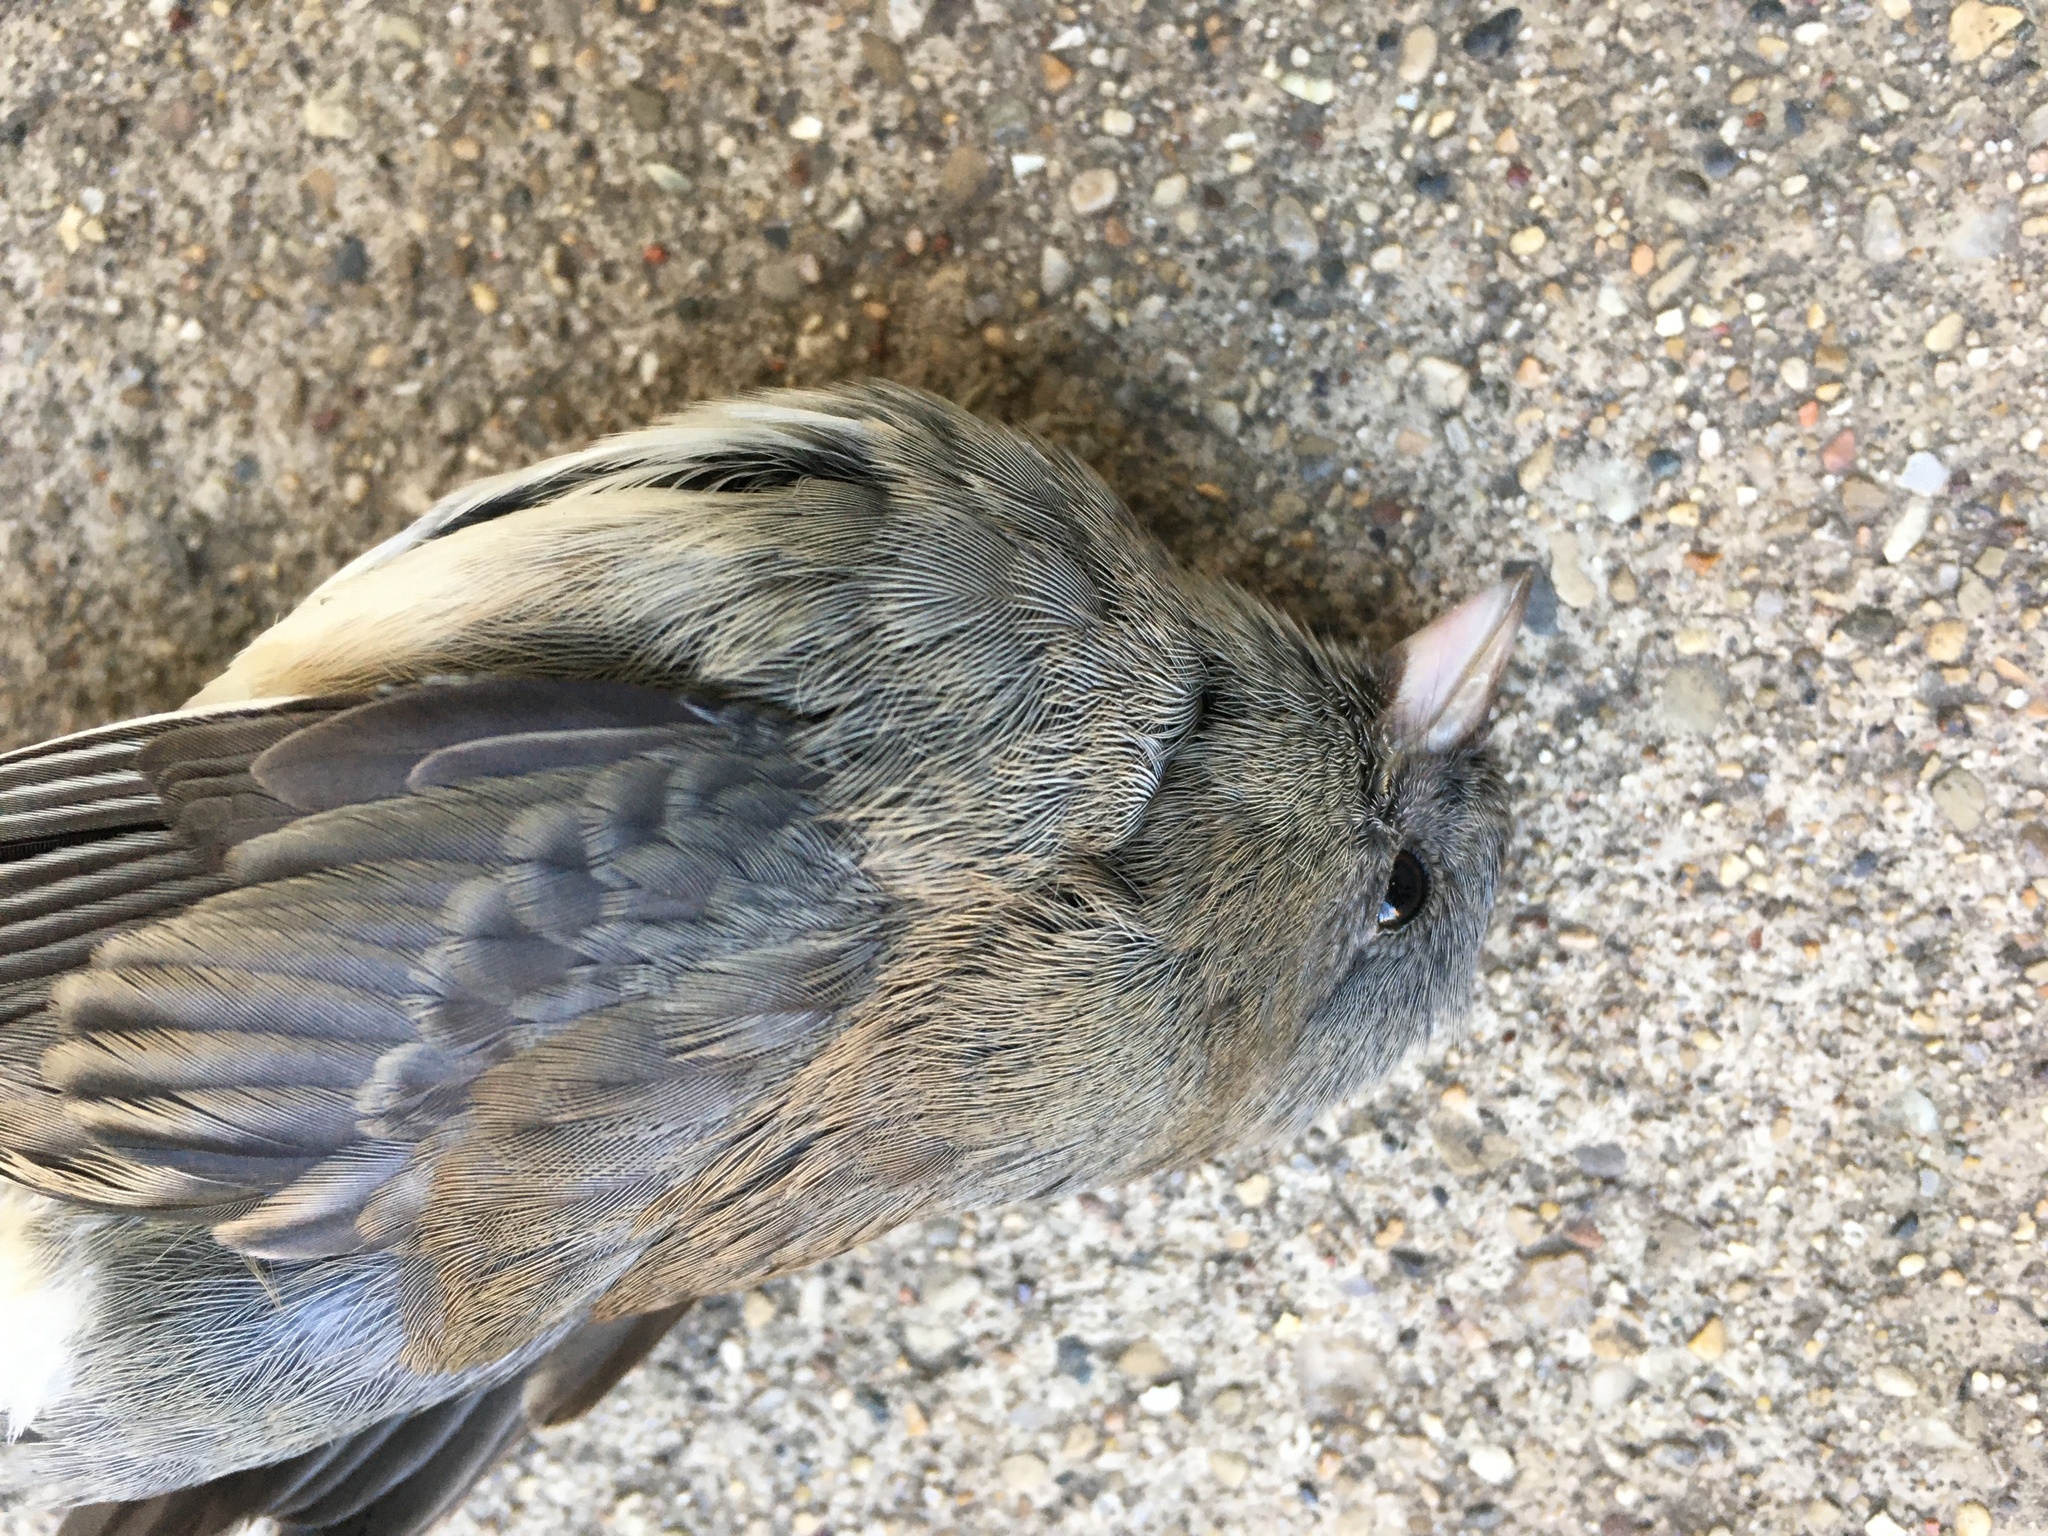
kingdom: Animalia
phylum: Chordata
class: Aves
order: Passeriformes
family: Passerellidae
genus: Junco
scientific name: Junco hyemalis
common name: Dark-eyed junco
